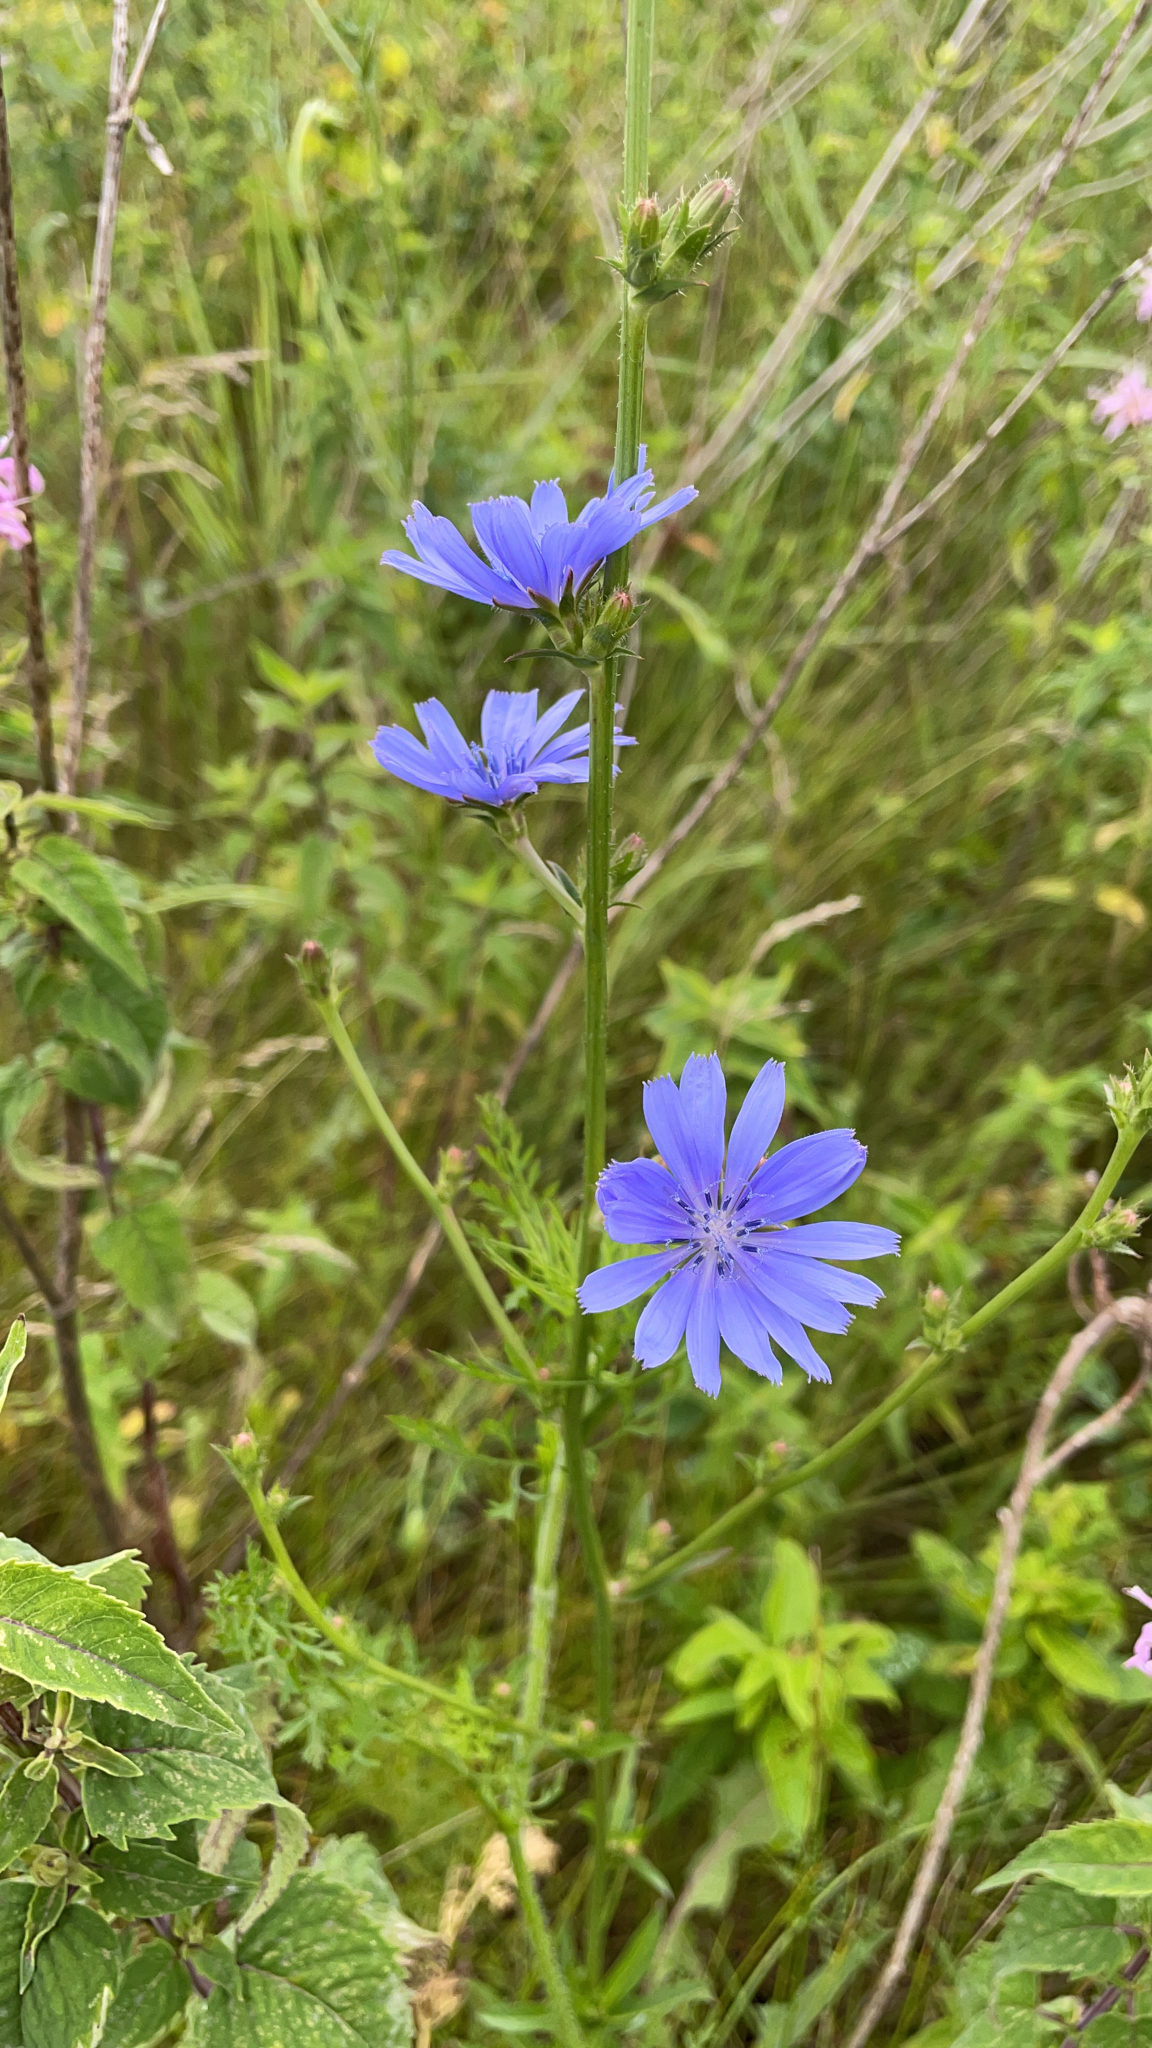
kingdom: Plantae
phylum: Tracheophyta
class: Magnoliopsida
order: Asterales
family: Asteraceae
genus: Cichorium
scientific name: Cichorium intybus
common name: Chicory
